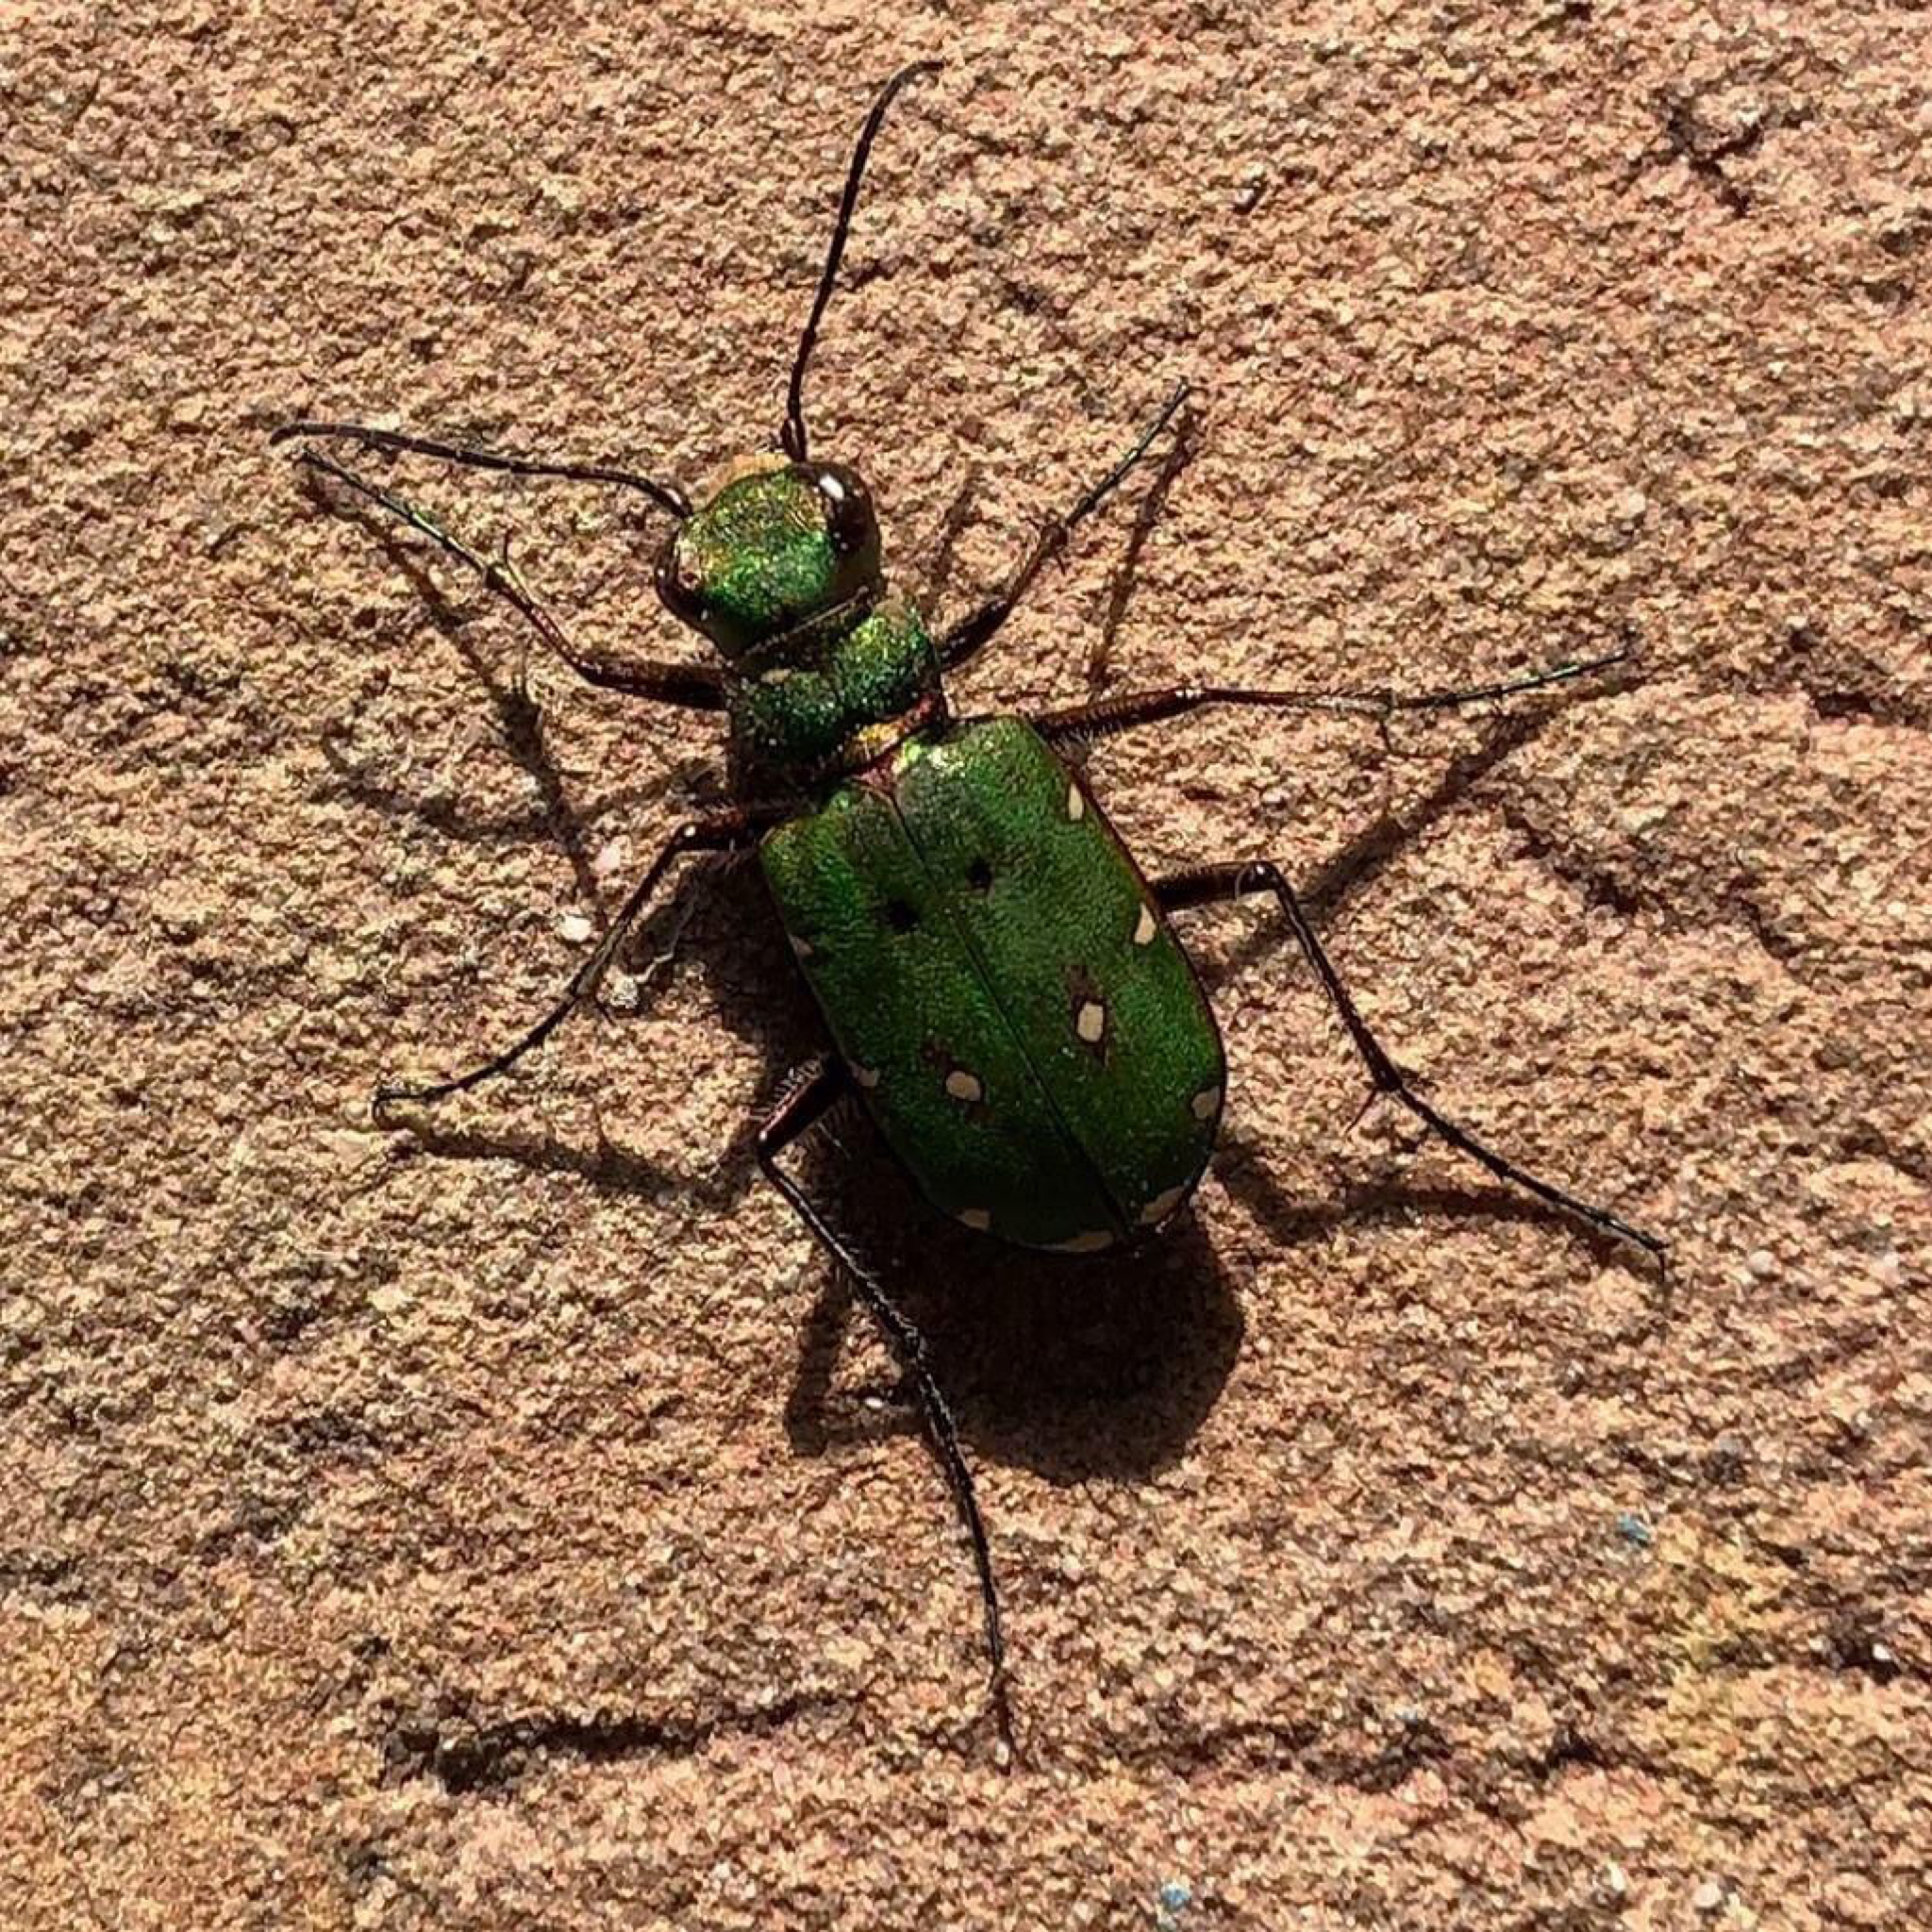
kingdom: Animalia
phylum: Arthropoda
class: Insecta
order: Coleoptera
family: Carabidae
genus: Cicindela
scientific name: Cicindela campestris
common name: Common tiger beetle
